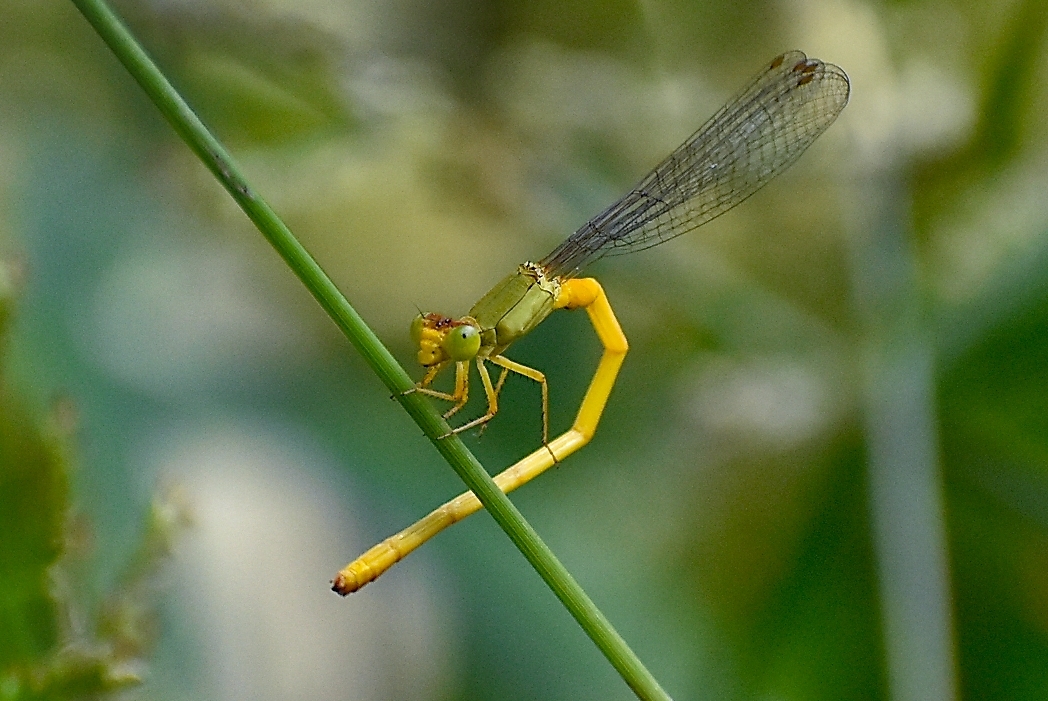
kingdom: Animalia
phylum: Arthropoda
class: Insecta
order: Odonata
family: Coenagrionidae
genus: Ceriagrion
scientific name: Ceriagrion coromandelianum
